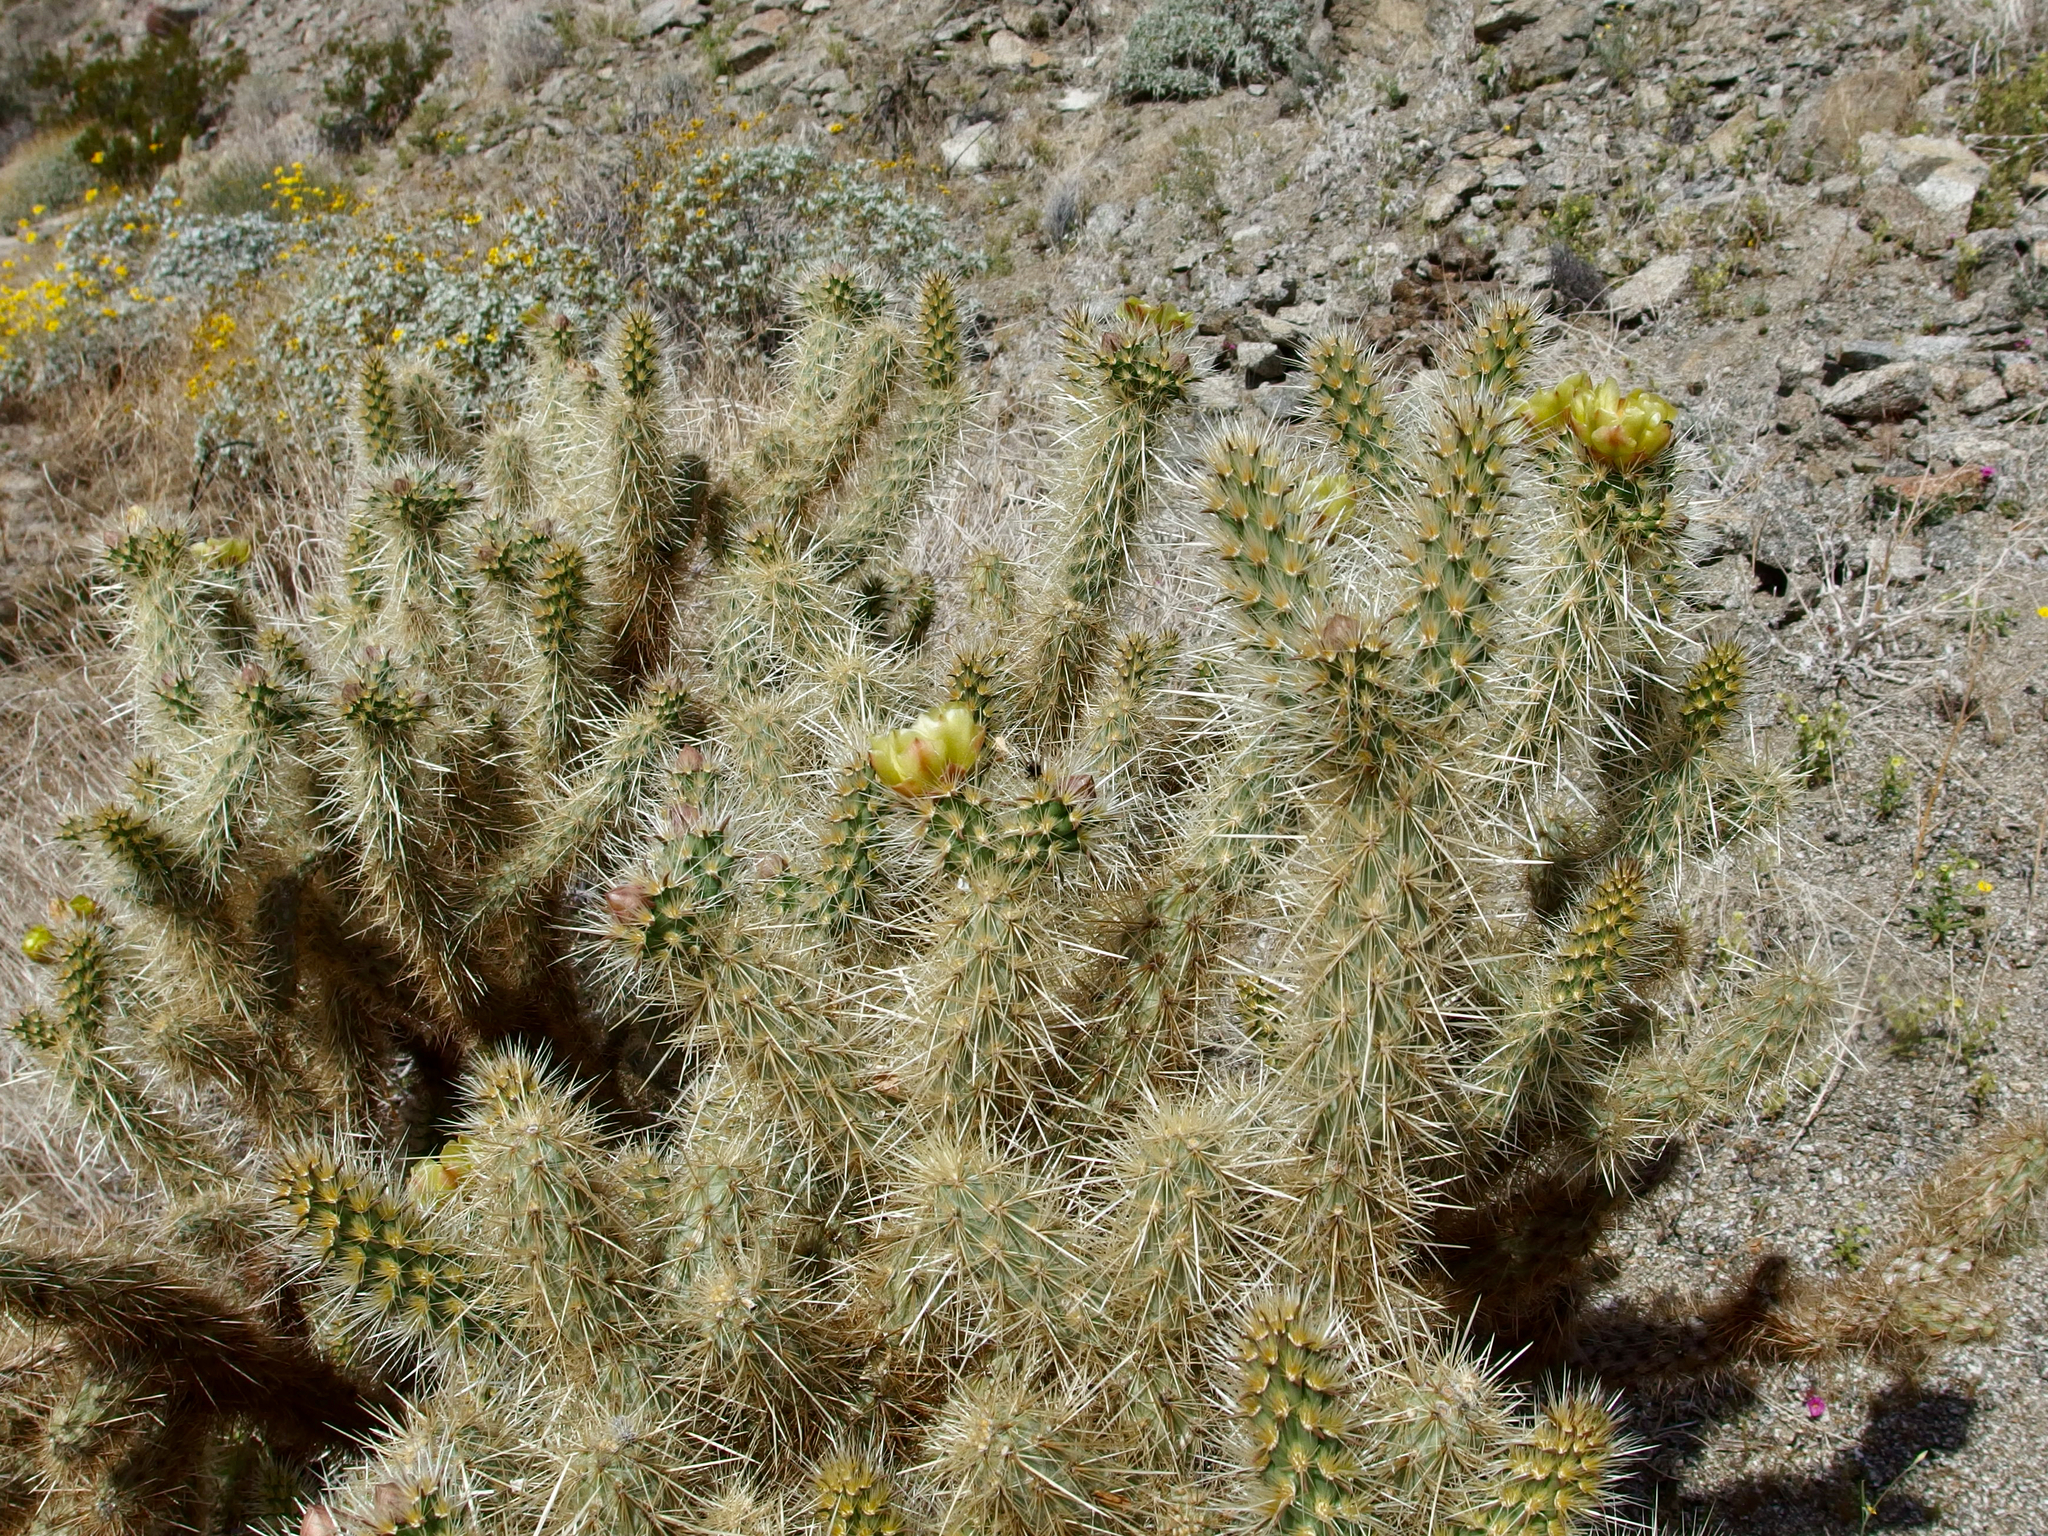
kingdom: Plantae
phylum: Tracheophyta
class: Magnoliopsida
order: Caryophyllales
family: Cactaceae
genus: Cylindropuntia
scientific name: Cylindropuntia ganderi
